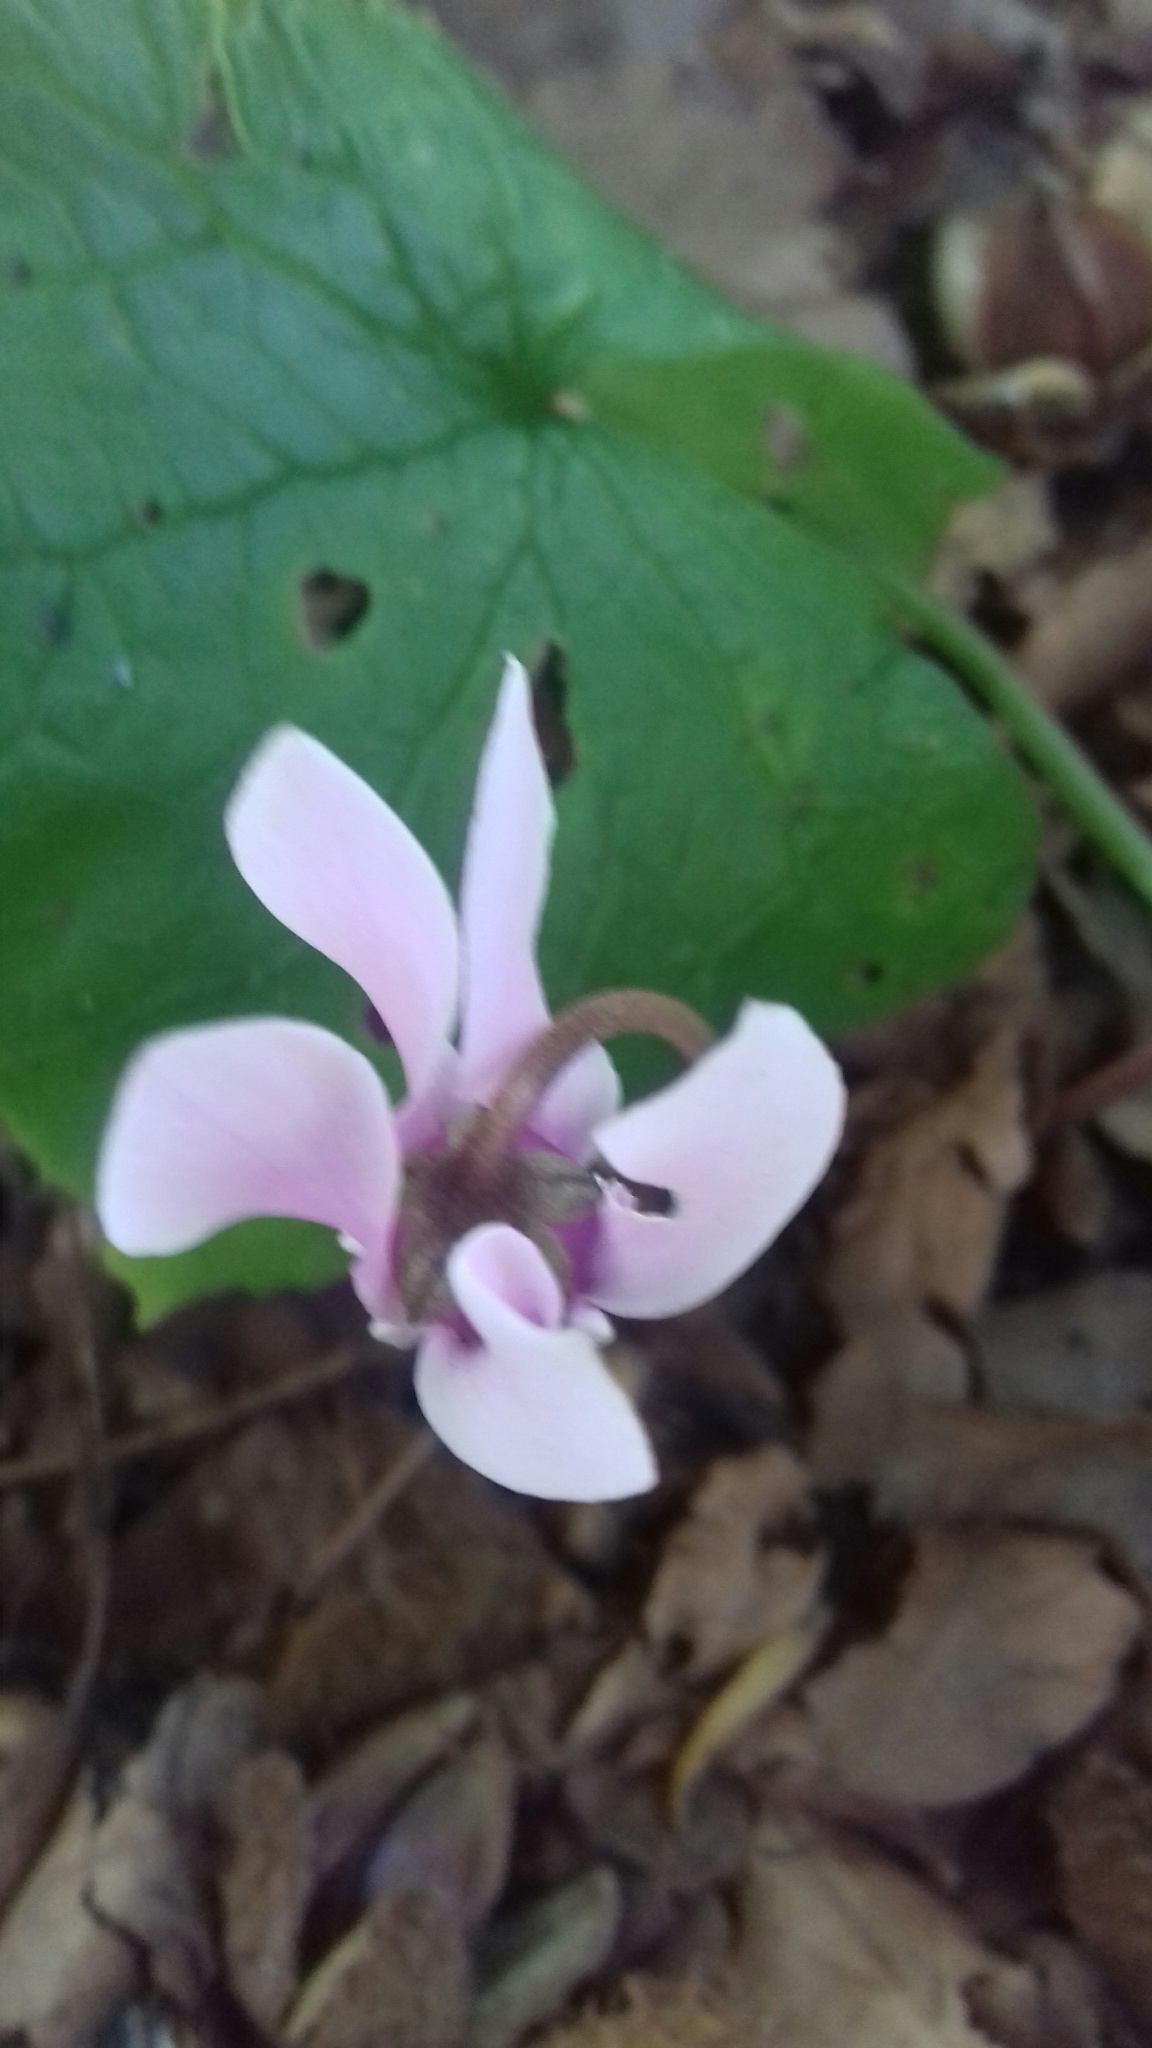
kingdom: Plantae
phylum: Tracheophyta
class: Magnoliopsida
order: Ericales
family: Primulaceae
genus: Cyclamen
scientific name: Cyclamen hederifolium
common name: Sowbread
